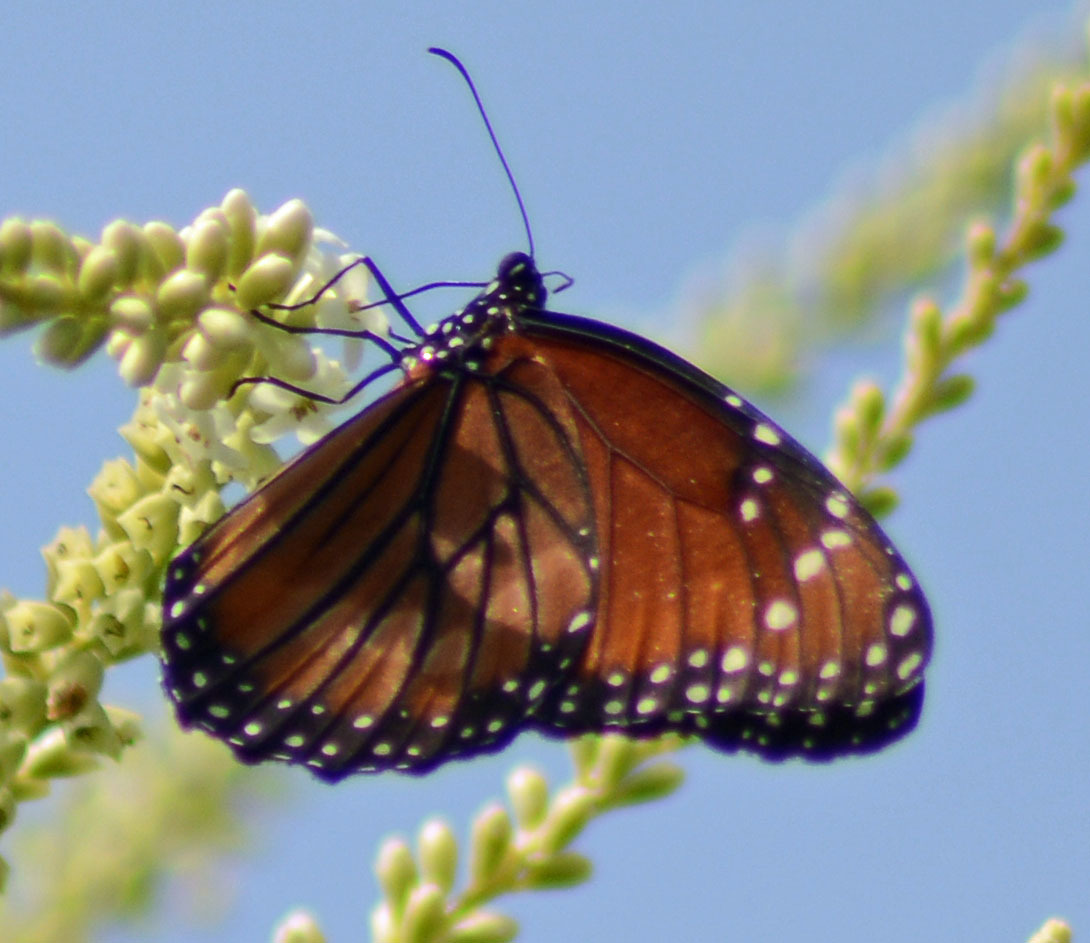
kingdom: Animalia
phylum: Arthropoda
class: Insecta
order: Lepidoptera
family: Nymphalidae
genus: Danaus
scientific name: Danaus eresimus
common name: Soldier
